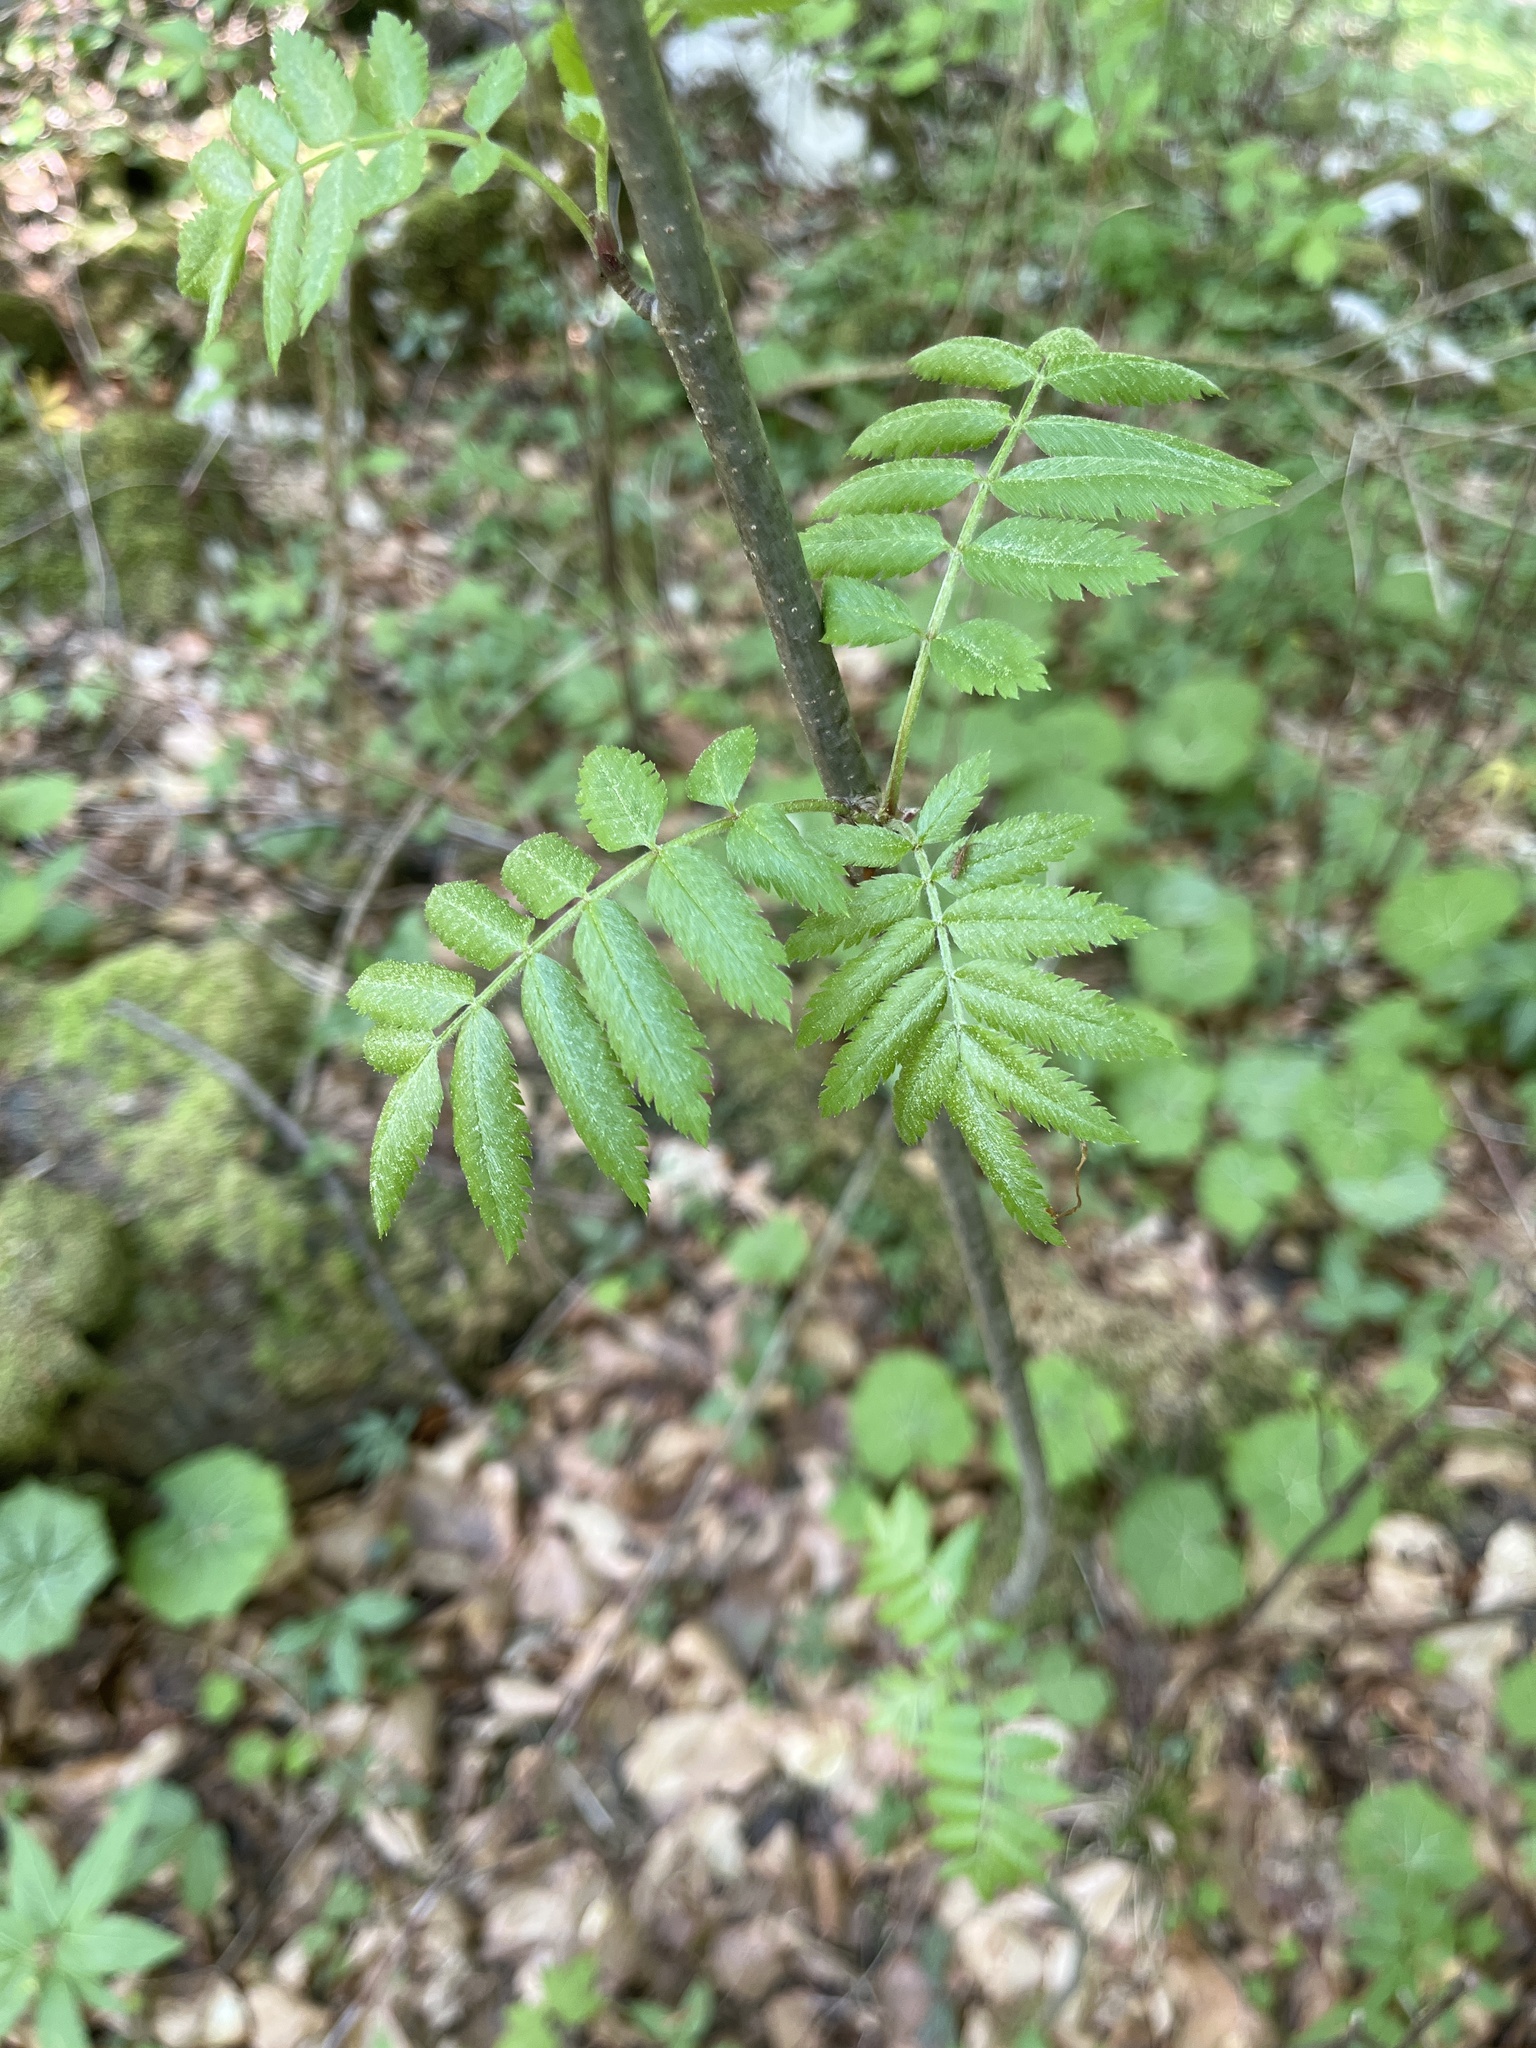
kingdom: Plantae
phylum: Tracheophyta
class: Magnoliopsida
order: Rosales
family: Rosaceae
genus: Sorbus
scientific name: Sorbus aucuparia
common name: Rowan
